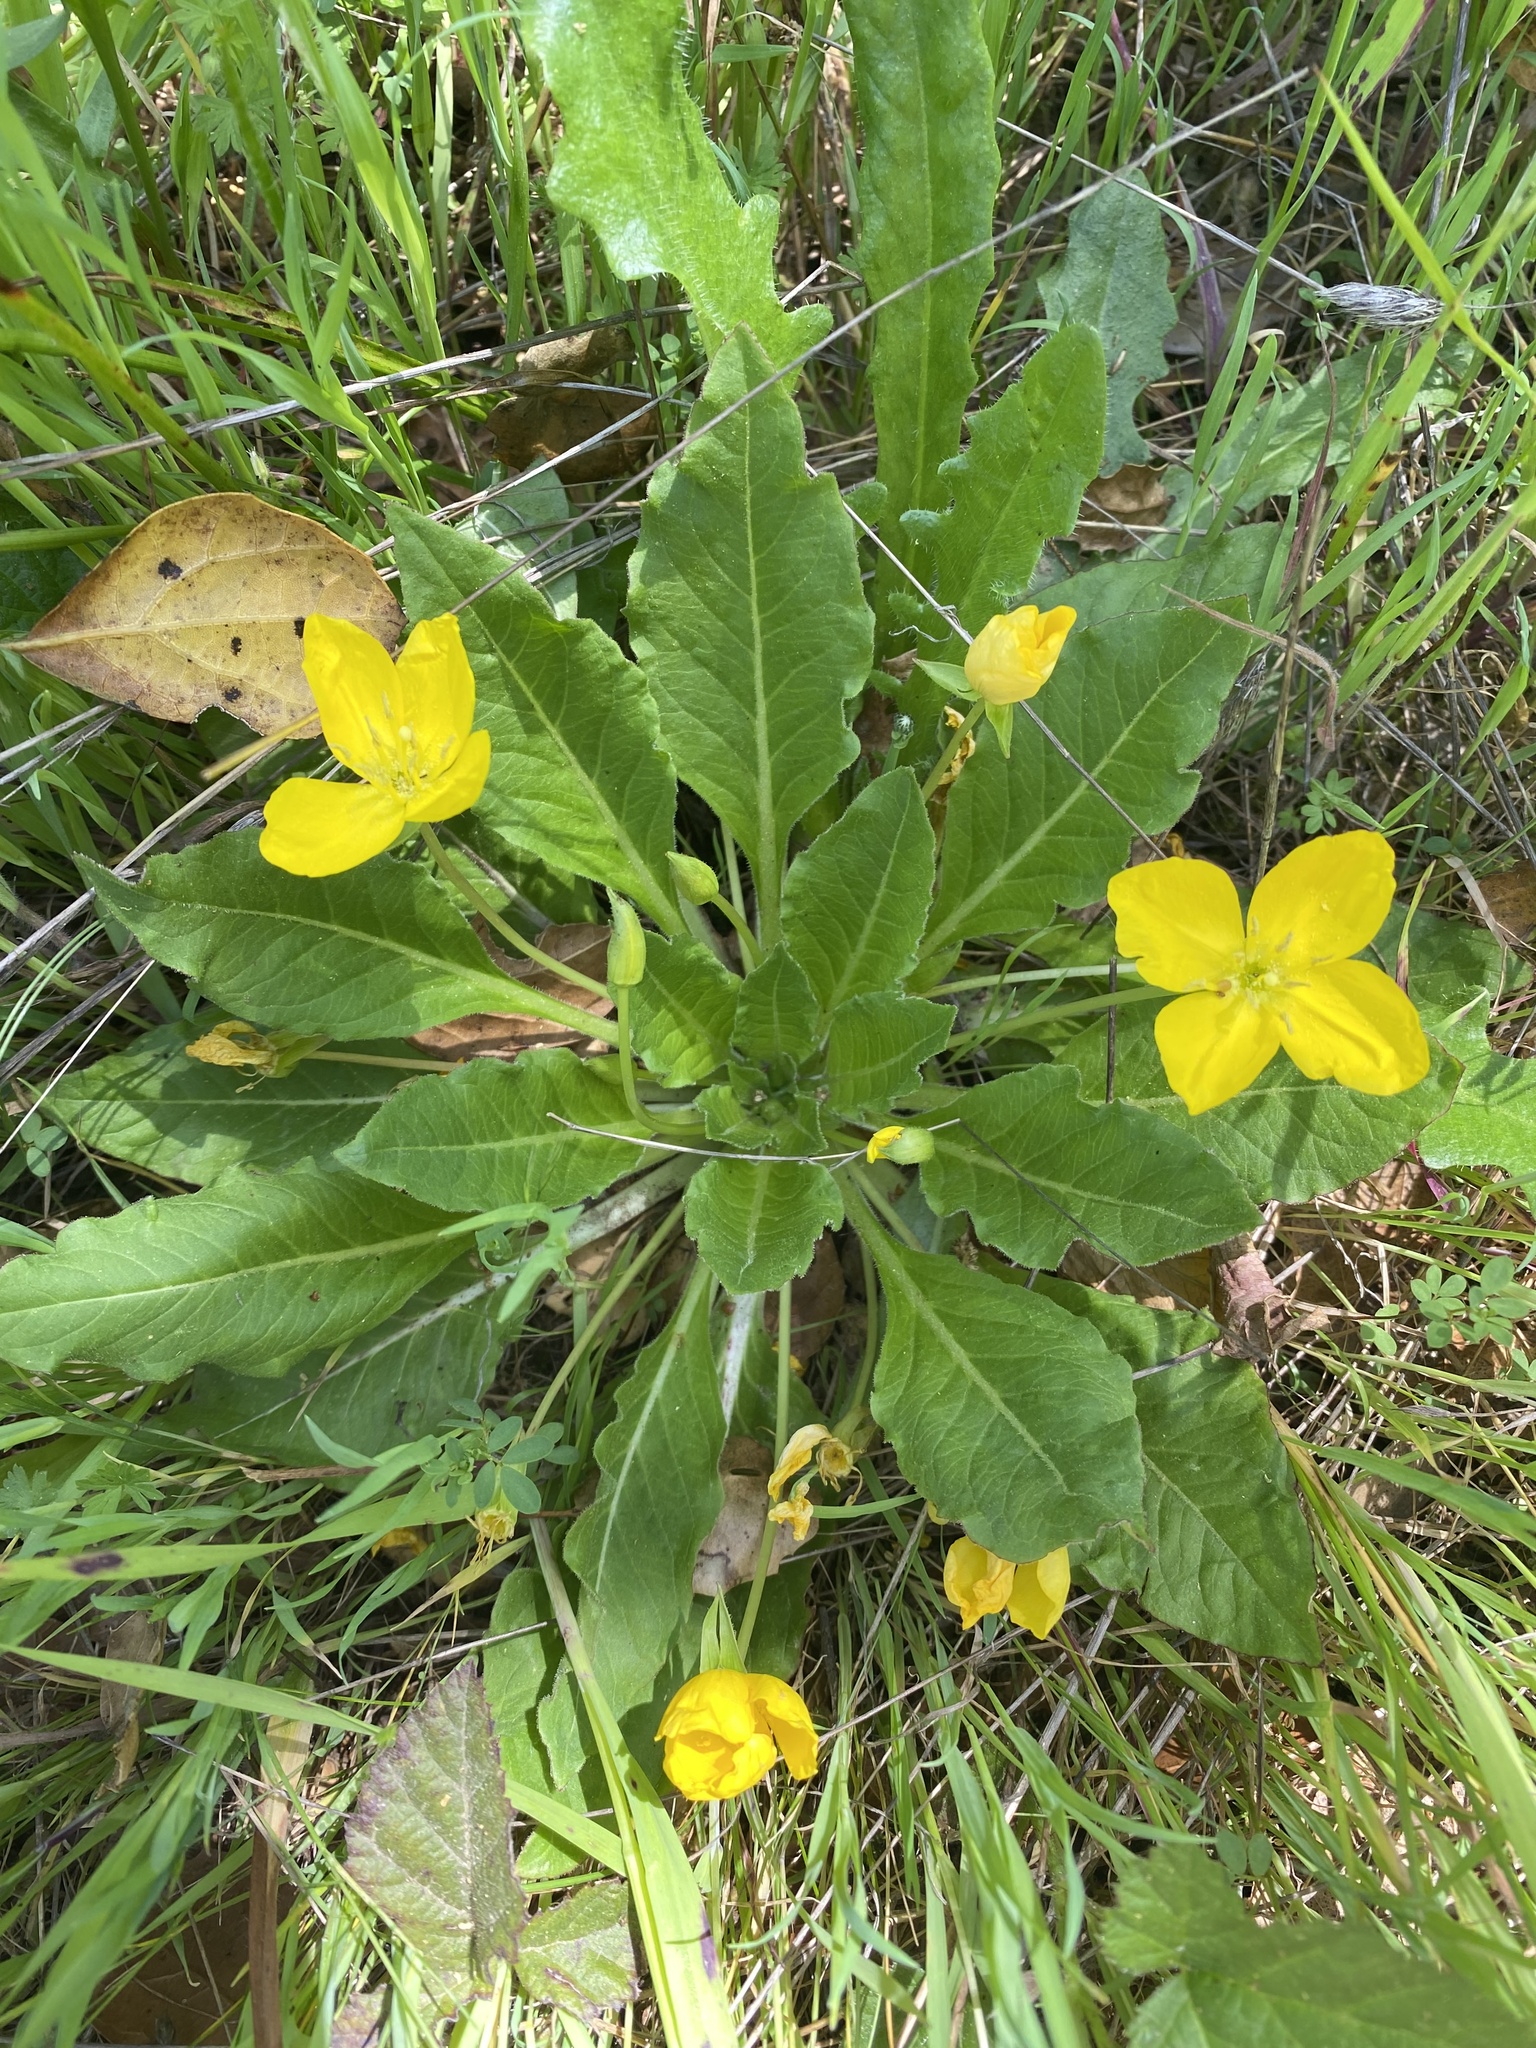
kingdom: Plantae
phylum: Tracheophyta
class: Magnoliopsida
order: Myrtales
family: Onagraceae
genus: Taraxia
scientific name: Taraxia ovata
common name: Goldeneggs
